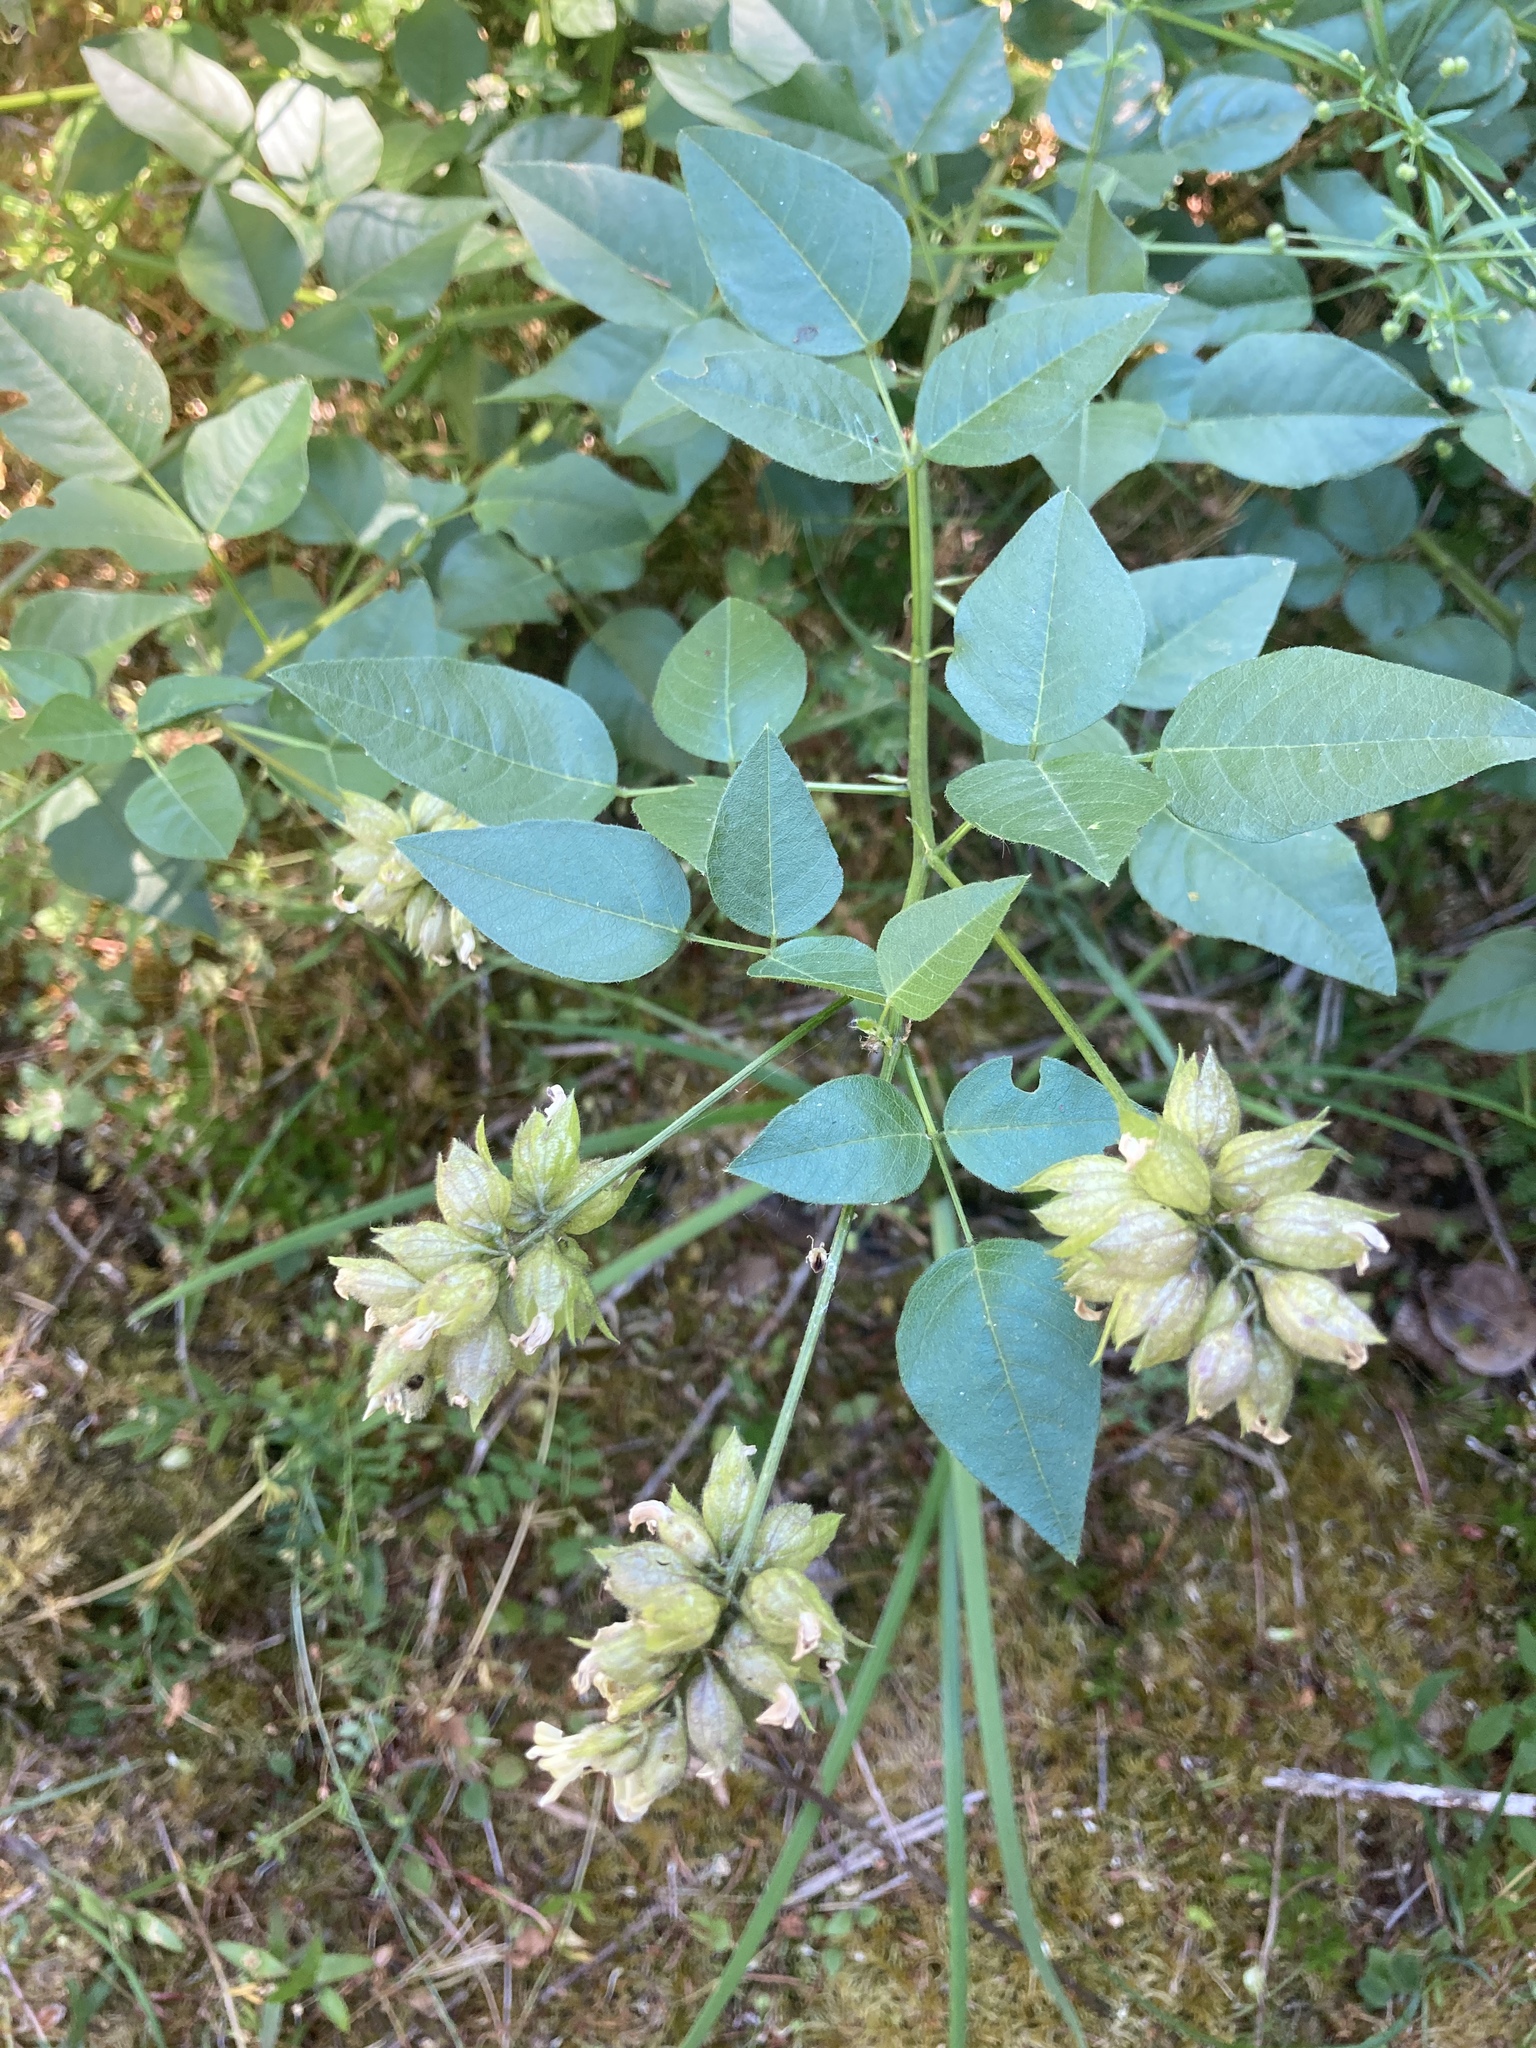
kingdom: Plantae
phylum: Tracheophyta
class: Magnoliopsida
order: Fabales
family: Fabaceae
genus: Rupertia
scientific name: Rupertia physodes
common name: California-tea
